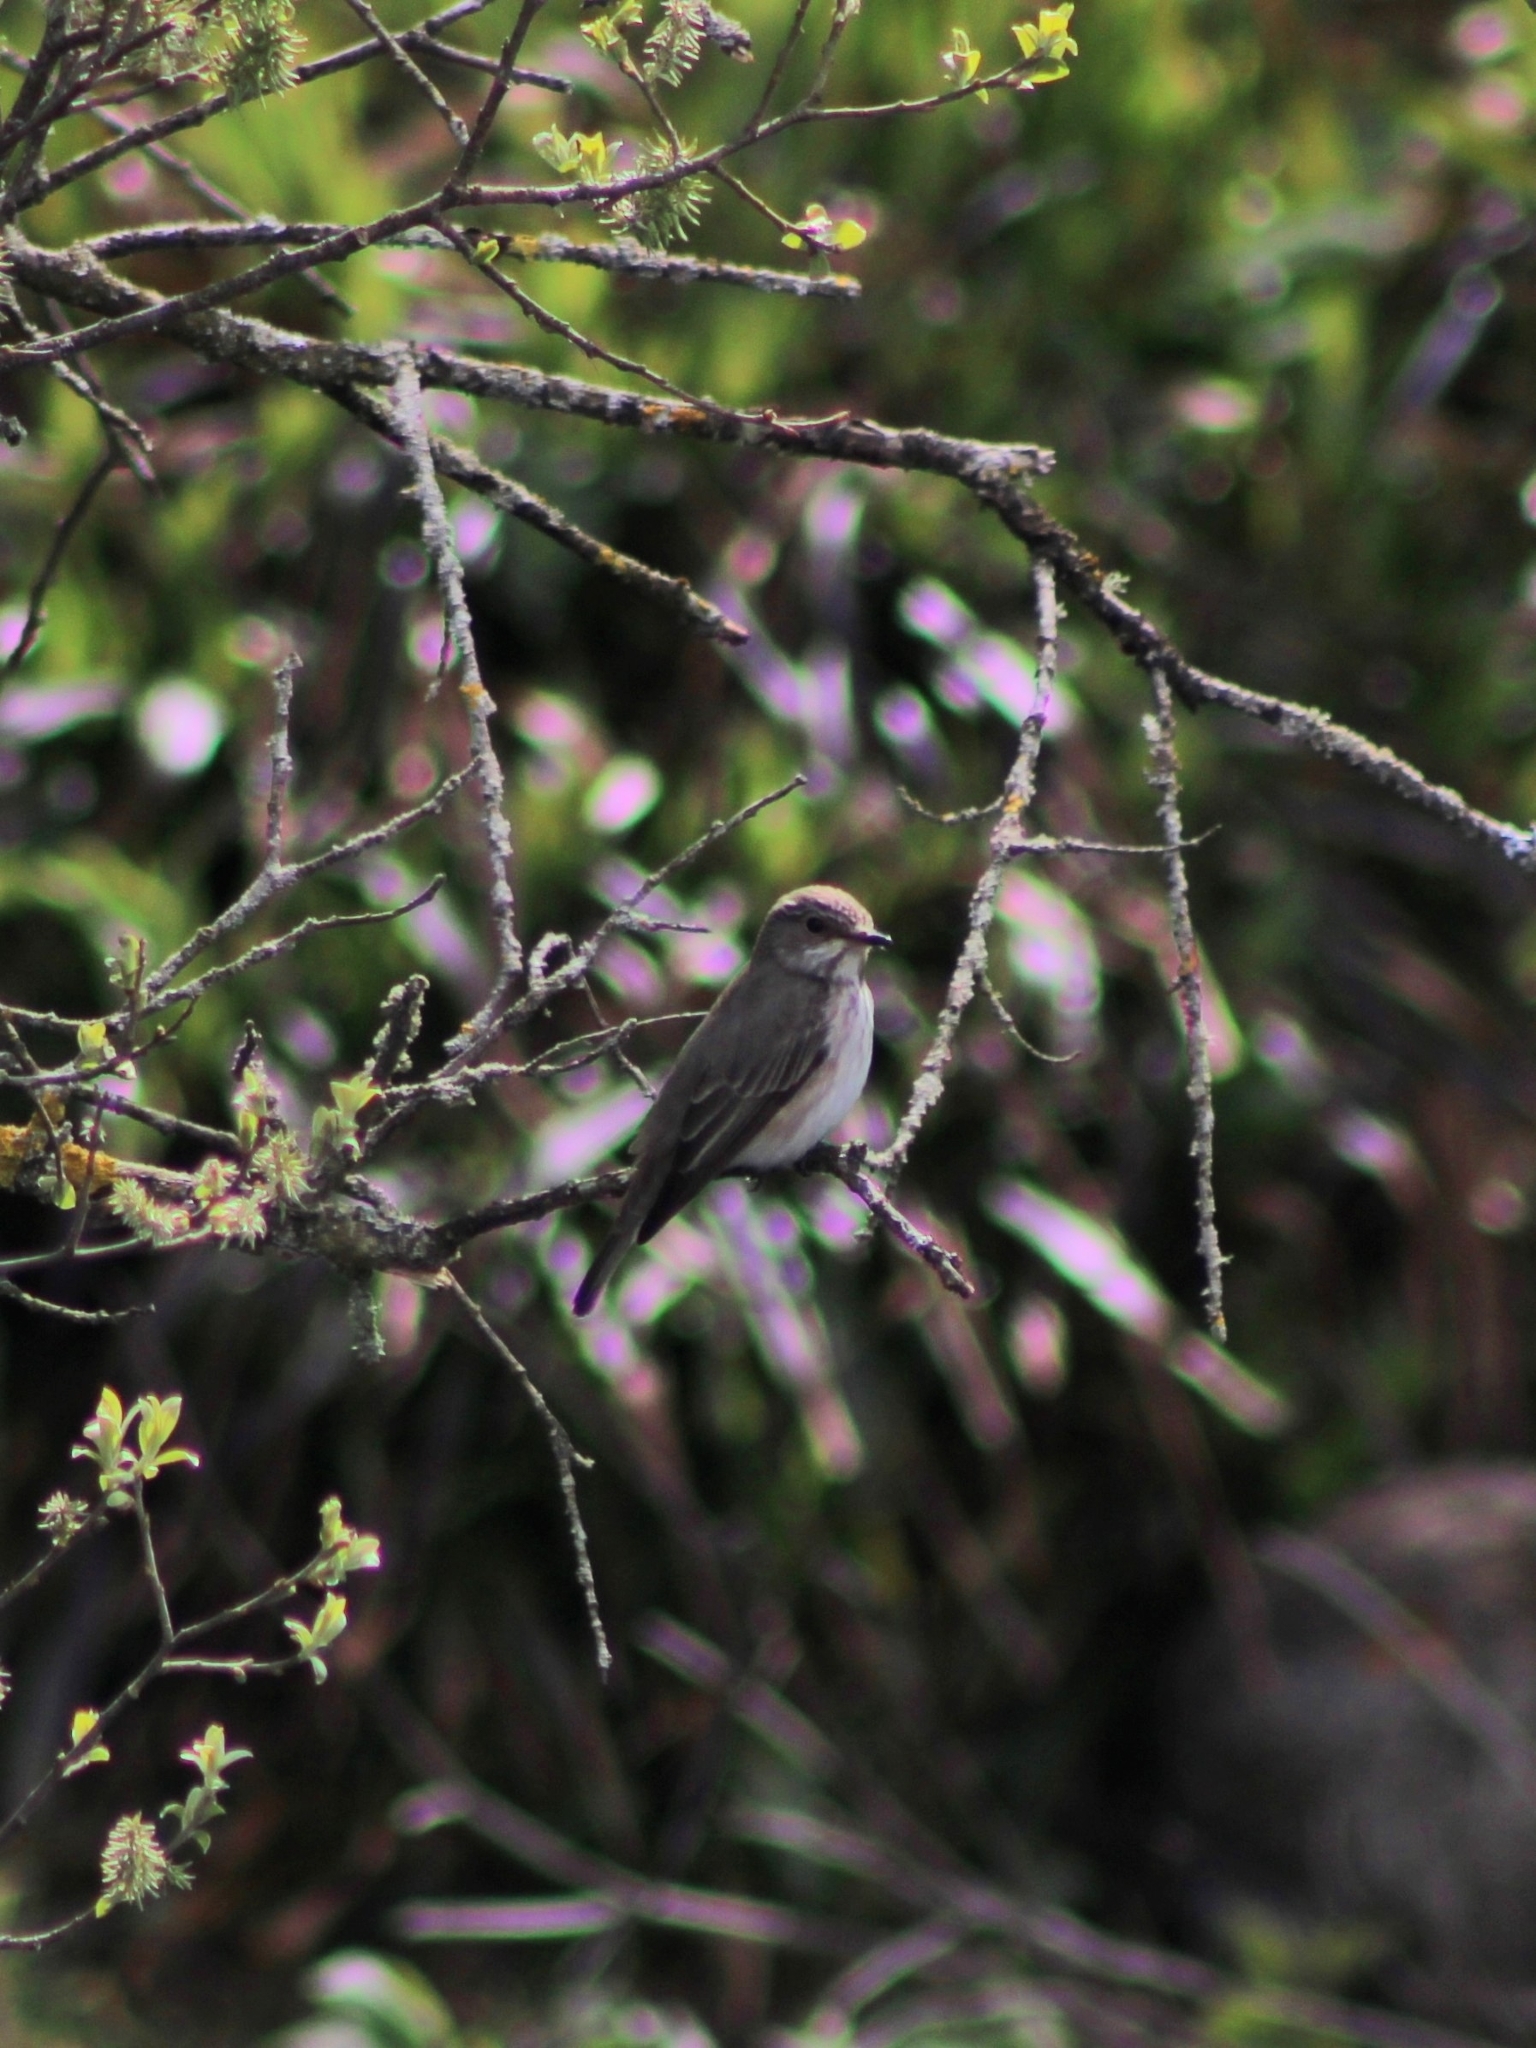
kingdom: Animalia
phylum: Chordata
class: Aves
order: Passeriformes
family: Muscicapidae
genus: Muscicapa
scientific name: Muscicapa striata
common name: Spotted flycatcher
